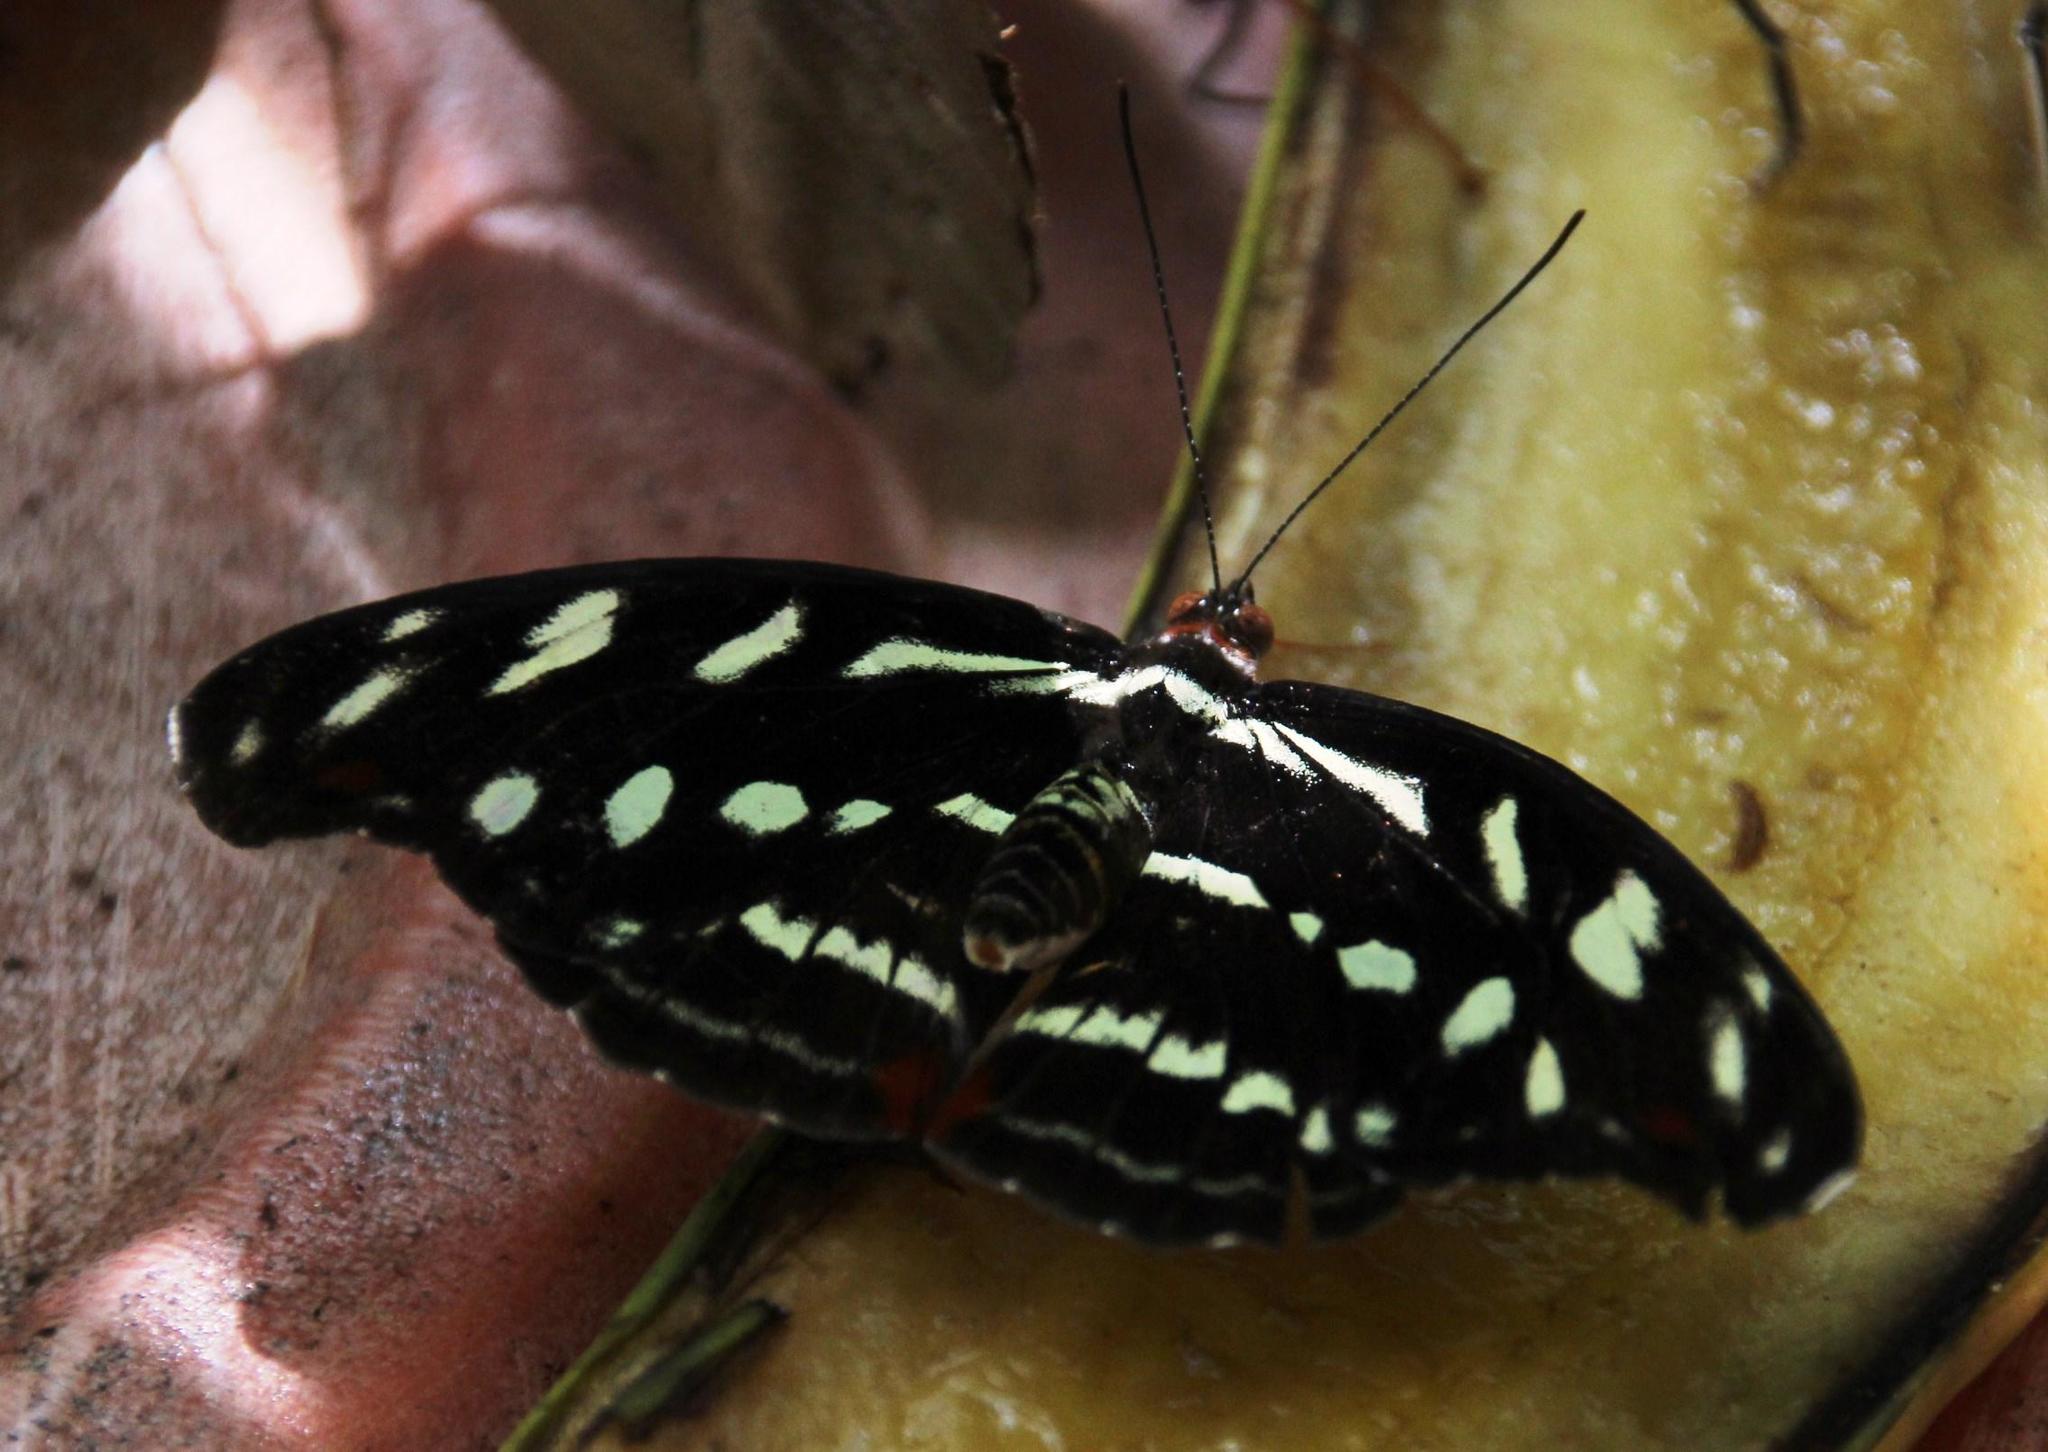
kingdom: Animalia
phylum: Arthropoda
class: Insecta
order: Lepidoptera
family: Nymphalidae
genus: Catonephele
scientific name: Catonephele acontius
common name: Unspotted firewing
